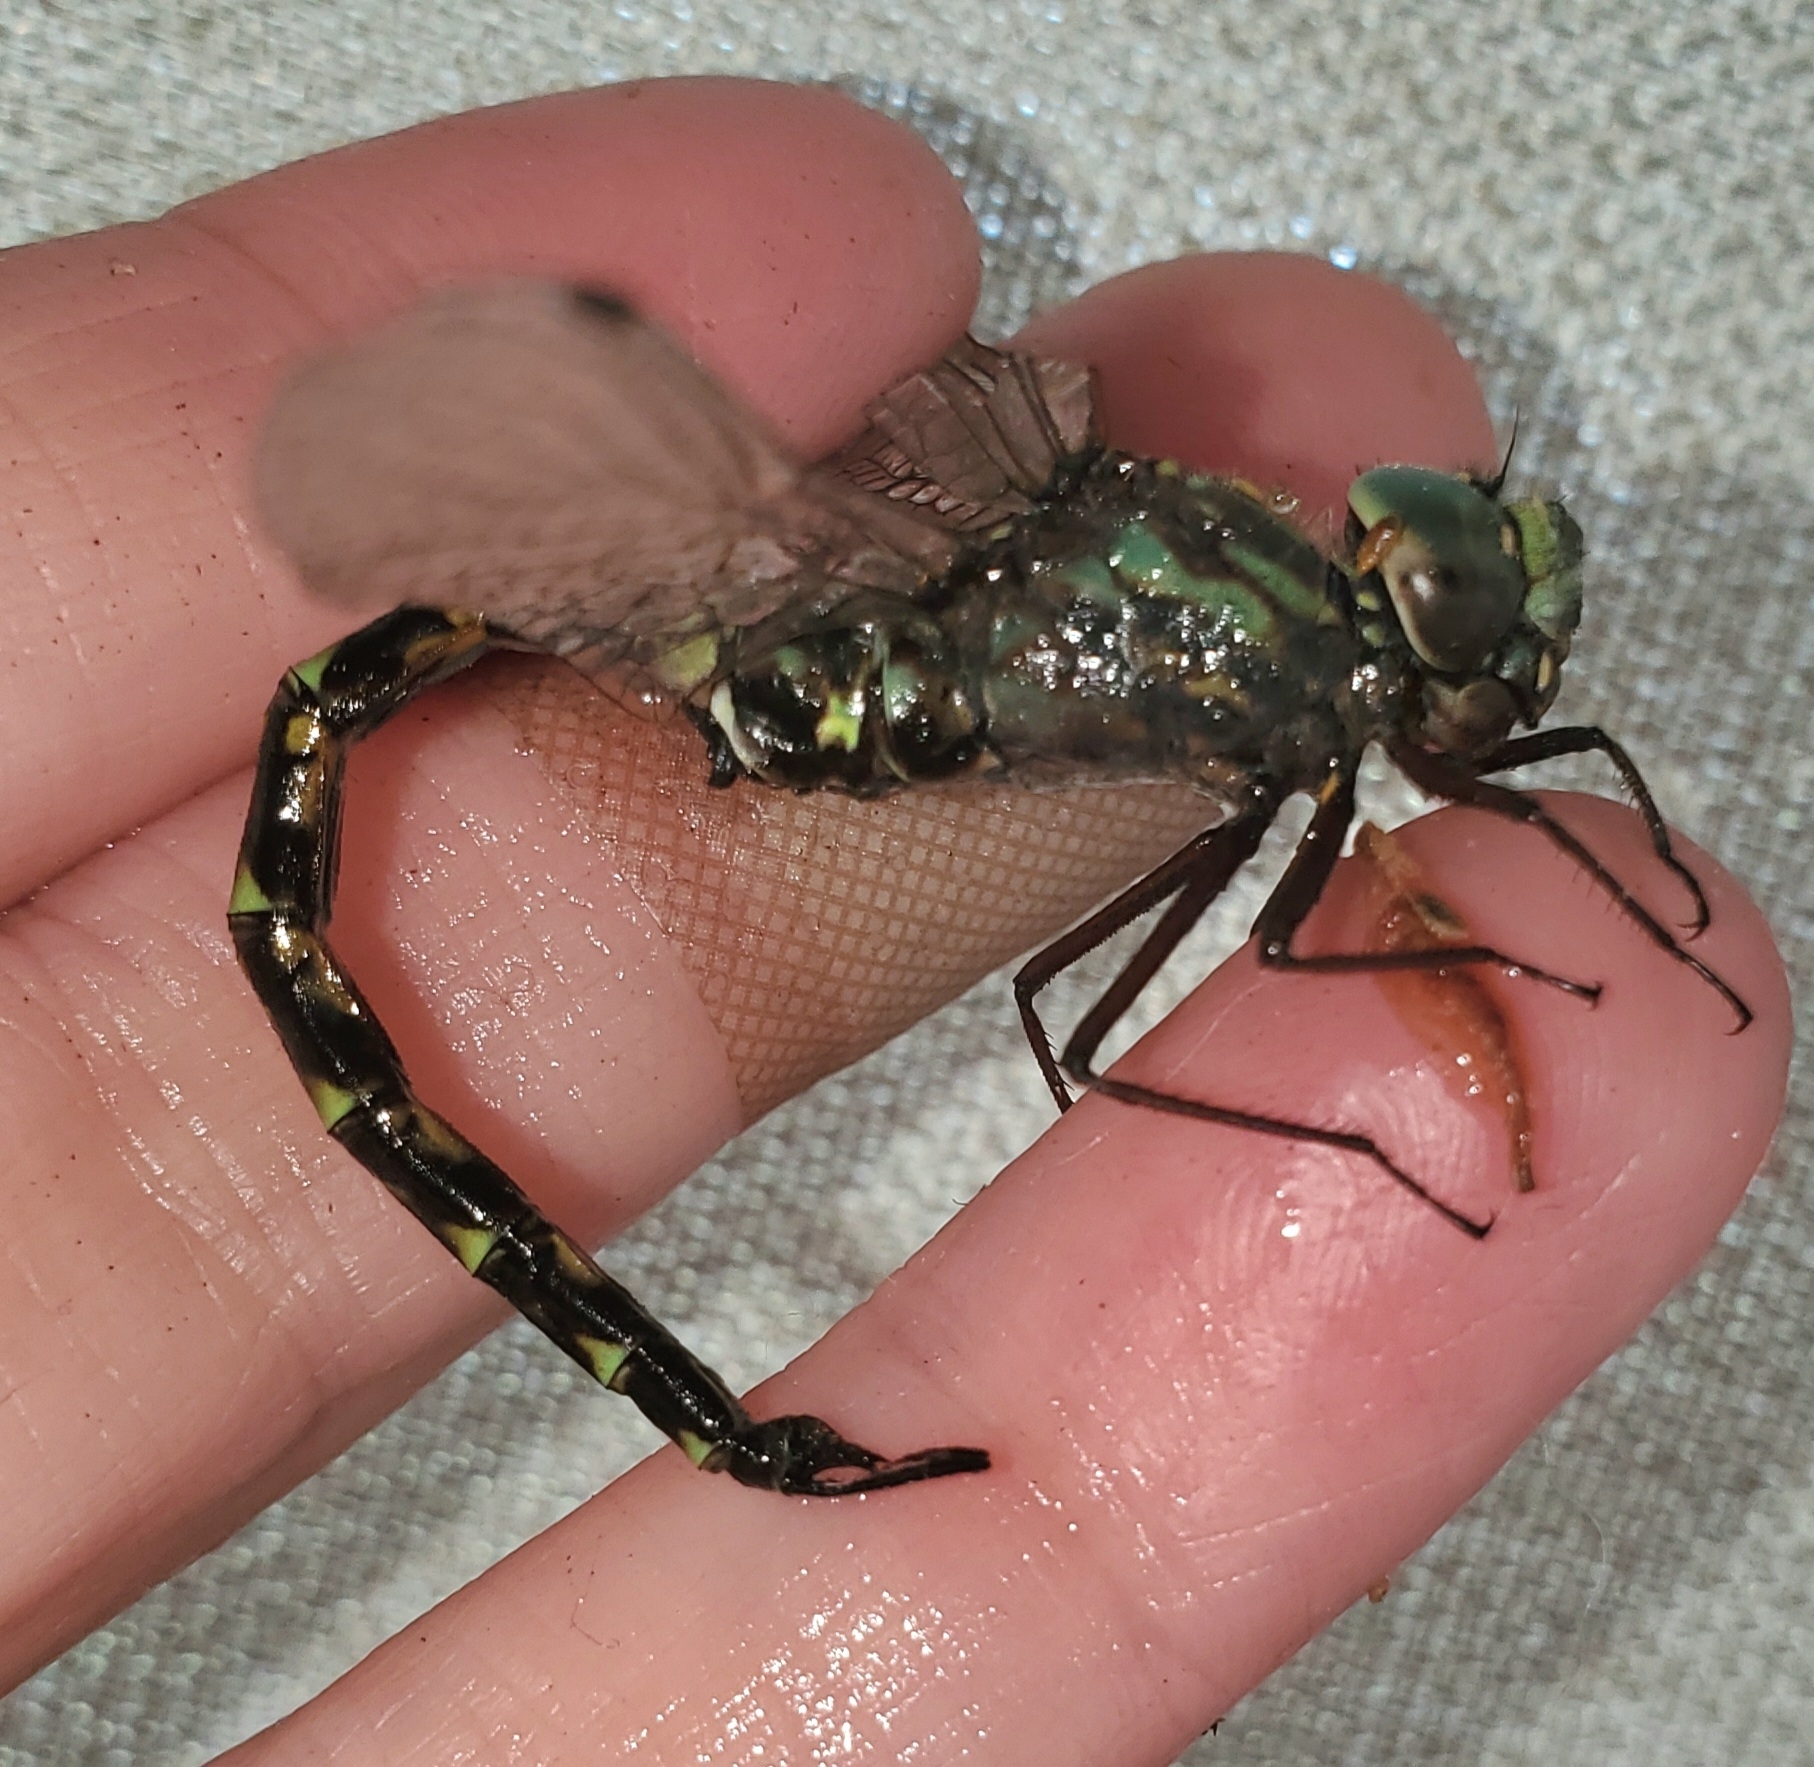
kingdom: Animalia
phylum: Arthropoda
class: Insecta
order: Odonata
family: Aeshnidae
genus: Gomphaeschna
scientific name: Gomphaeschna furcillata
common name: Harlequin darner
